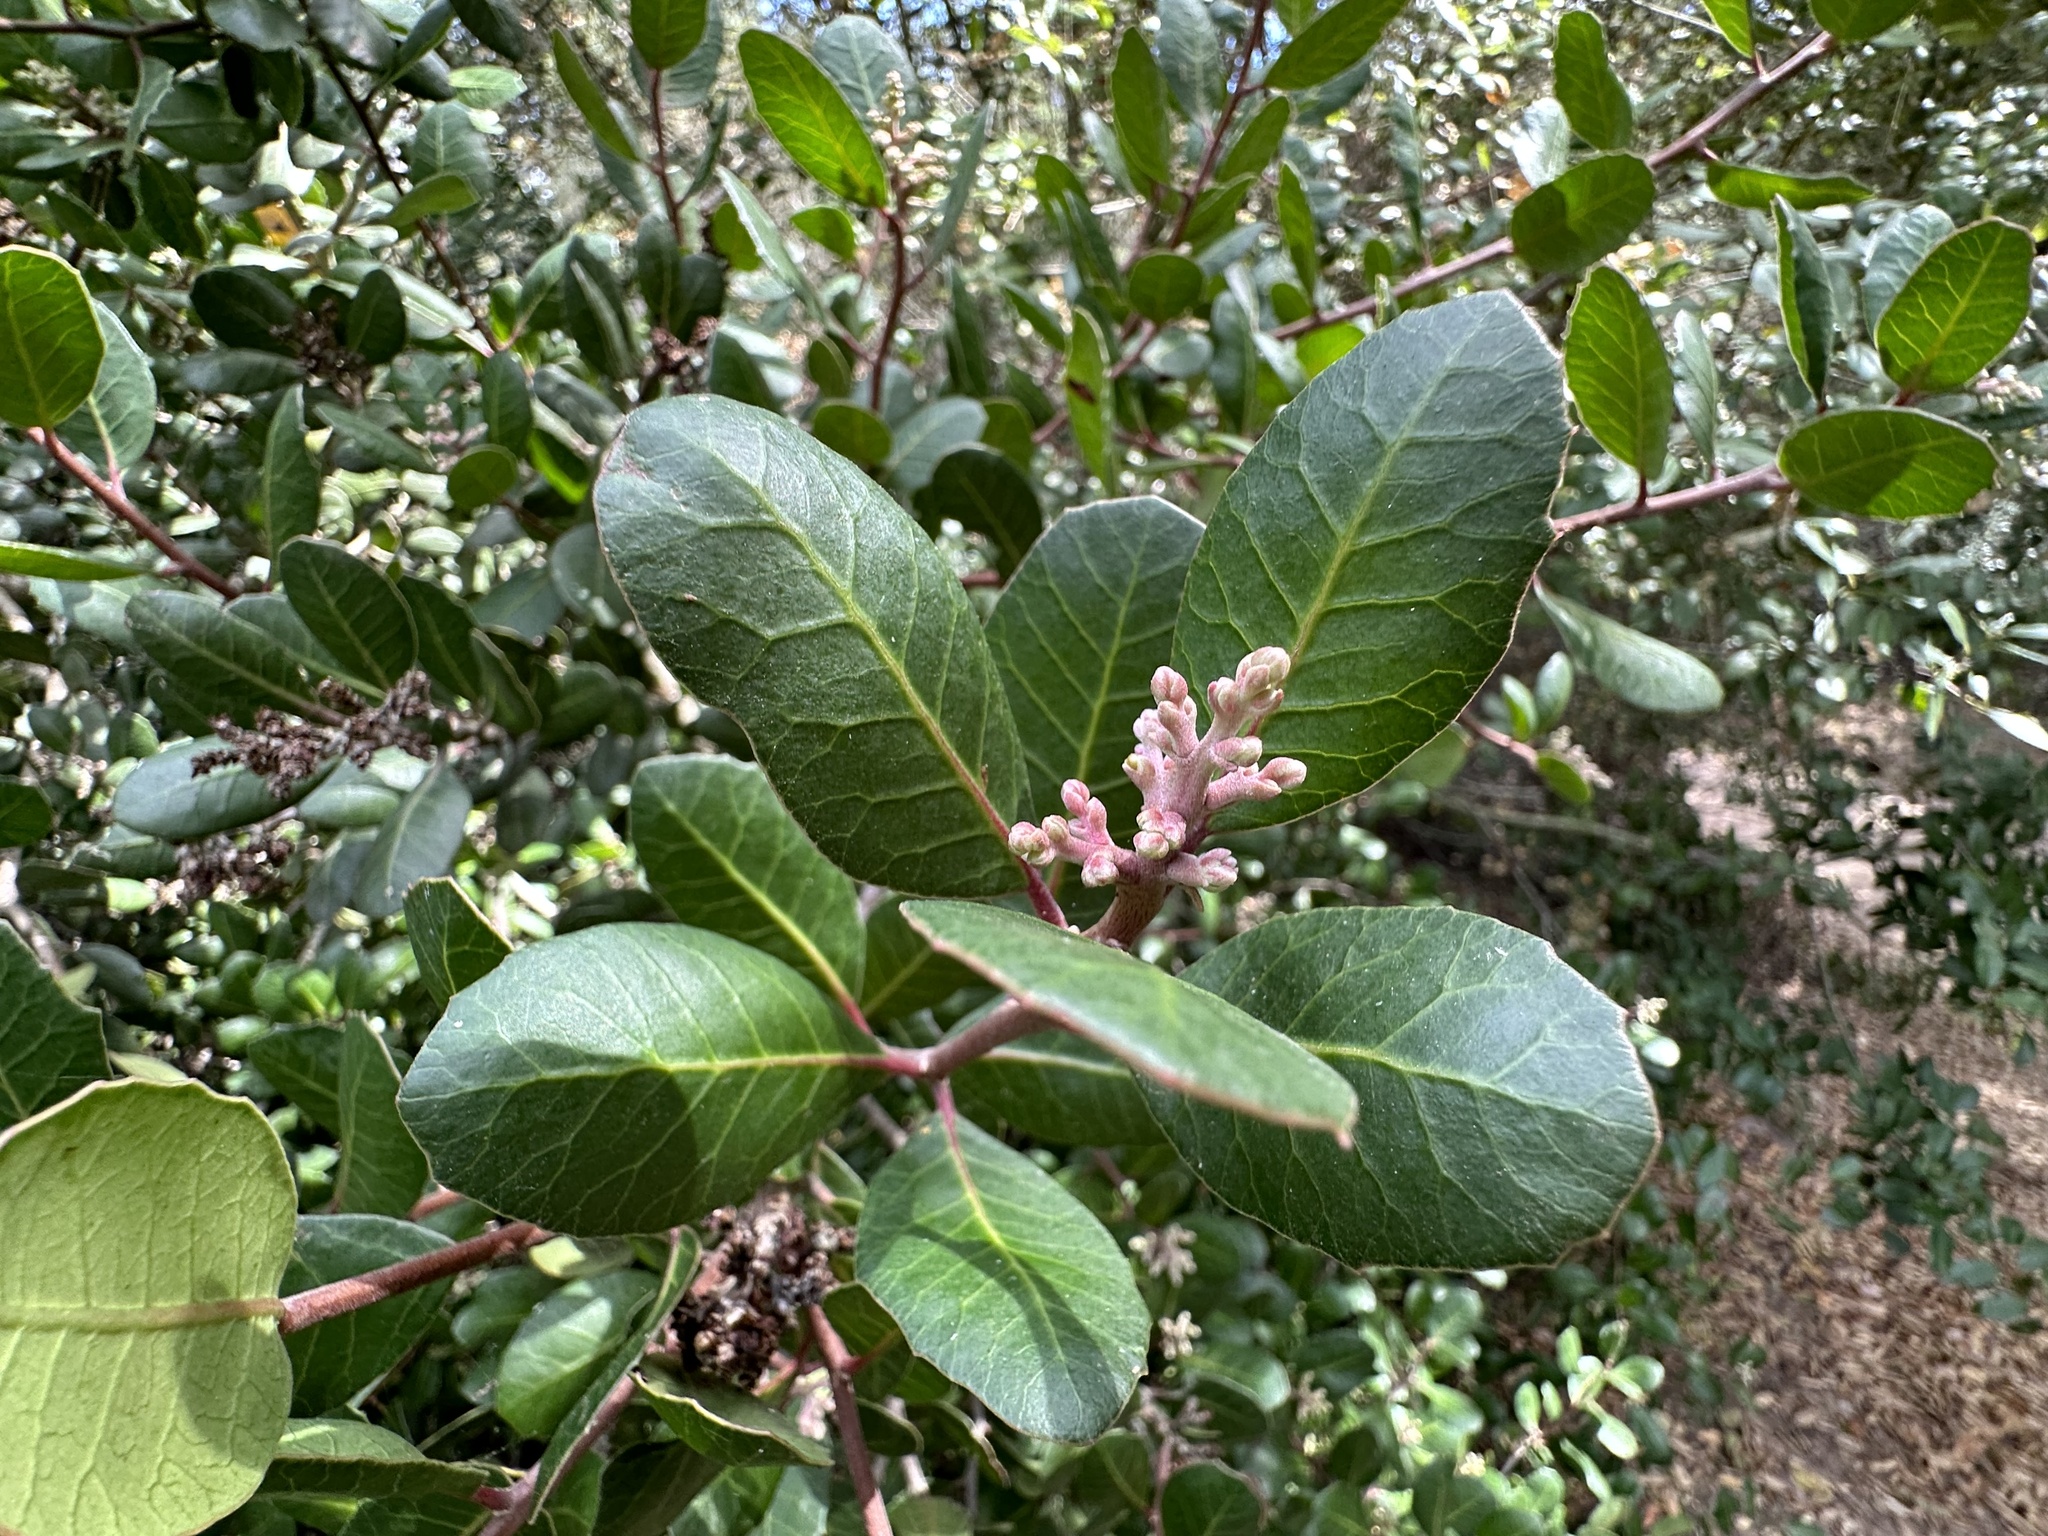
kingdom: Plantae
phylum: Tracheophyta
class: Magnoliopsida
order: Sapindales
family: Anacardiaceae
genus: Rhus
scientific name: Rhus integrifolia
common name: Lemonade sumac
